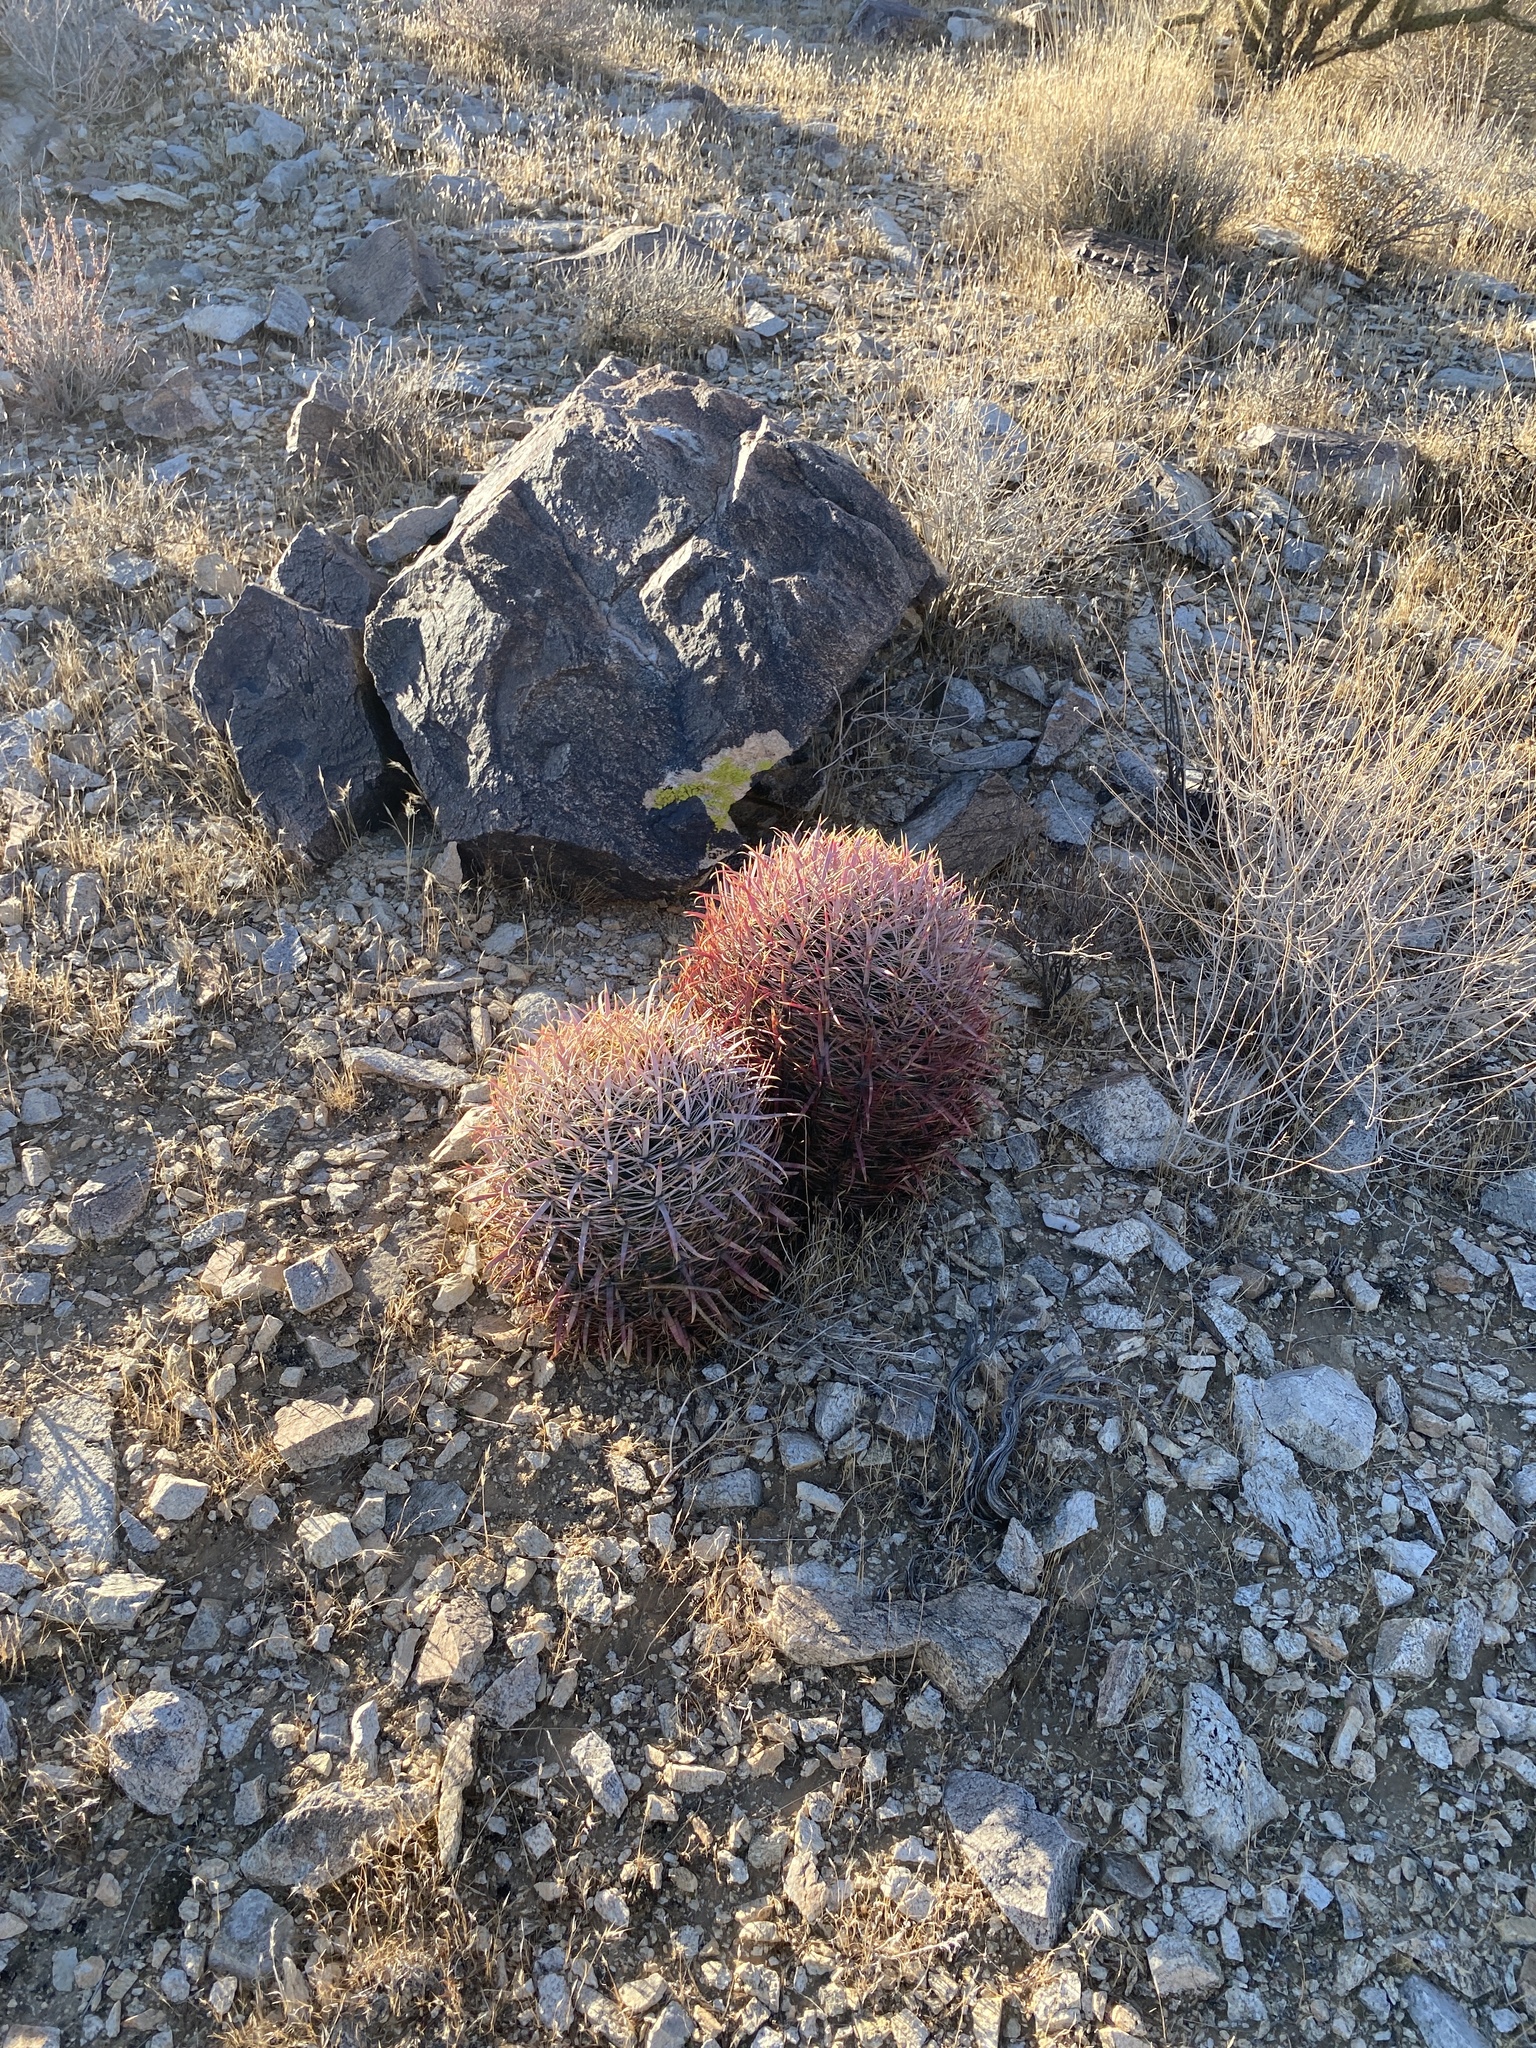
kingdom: Plantae
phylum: Tracheophyta
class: Magnoliopsida
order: Caryophyllales
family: Cactaceae
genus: Ferocactus
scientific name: Ferocactus cylindraceus
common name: California barrel cactus
